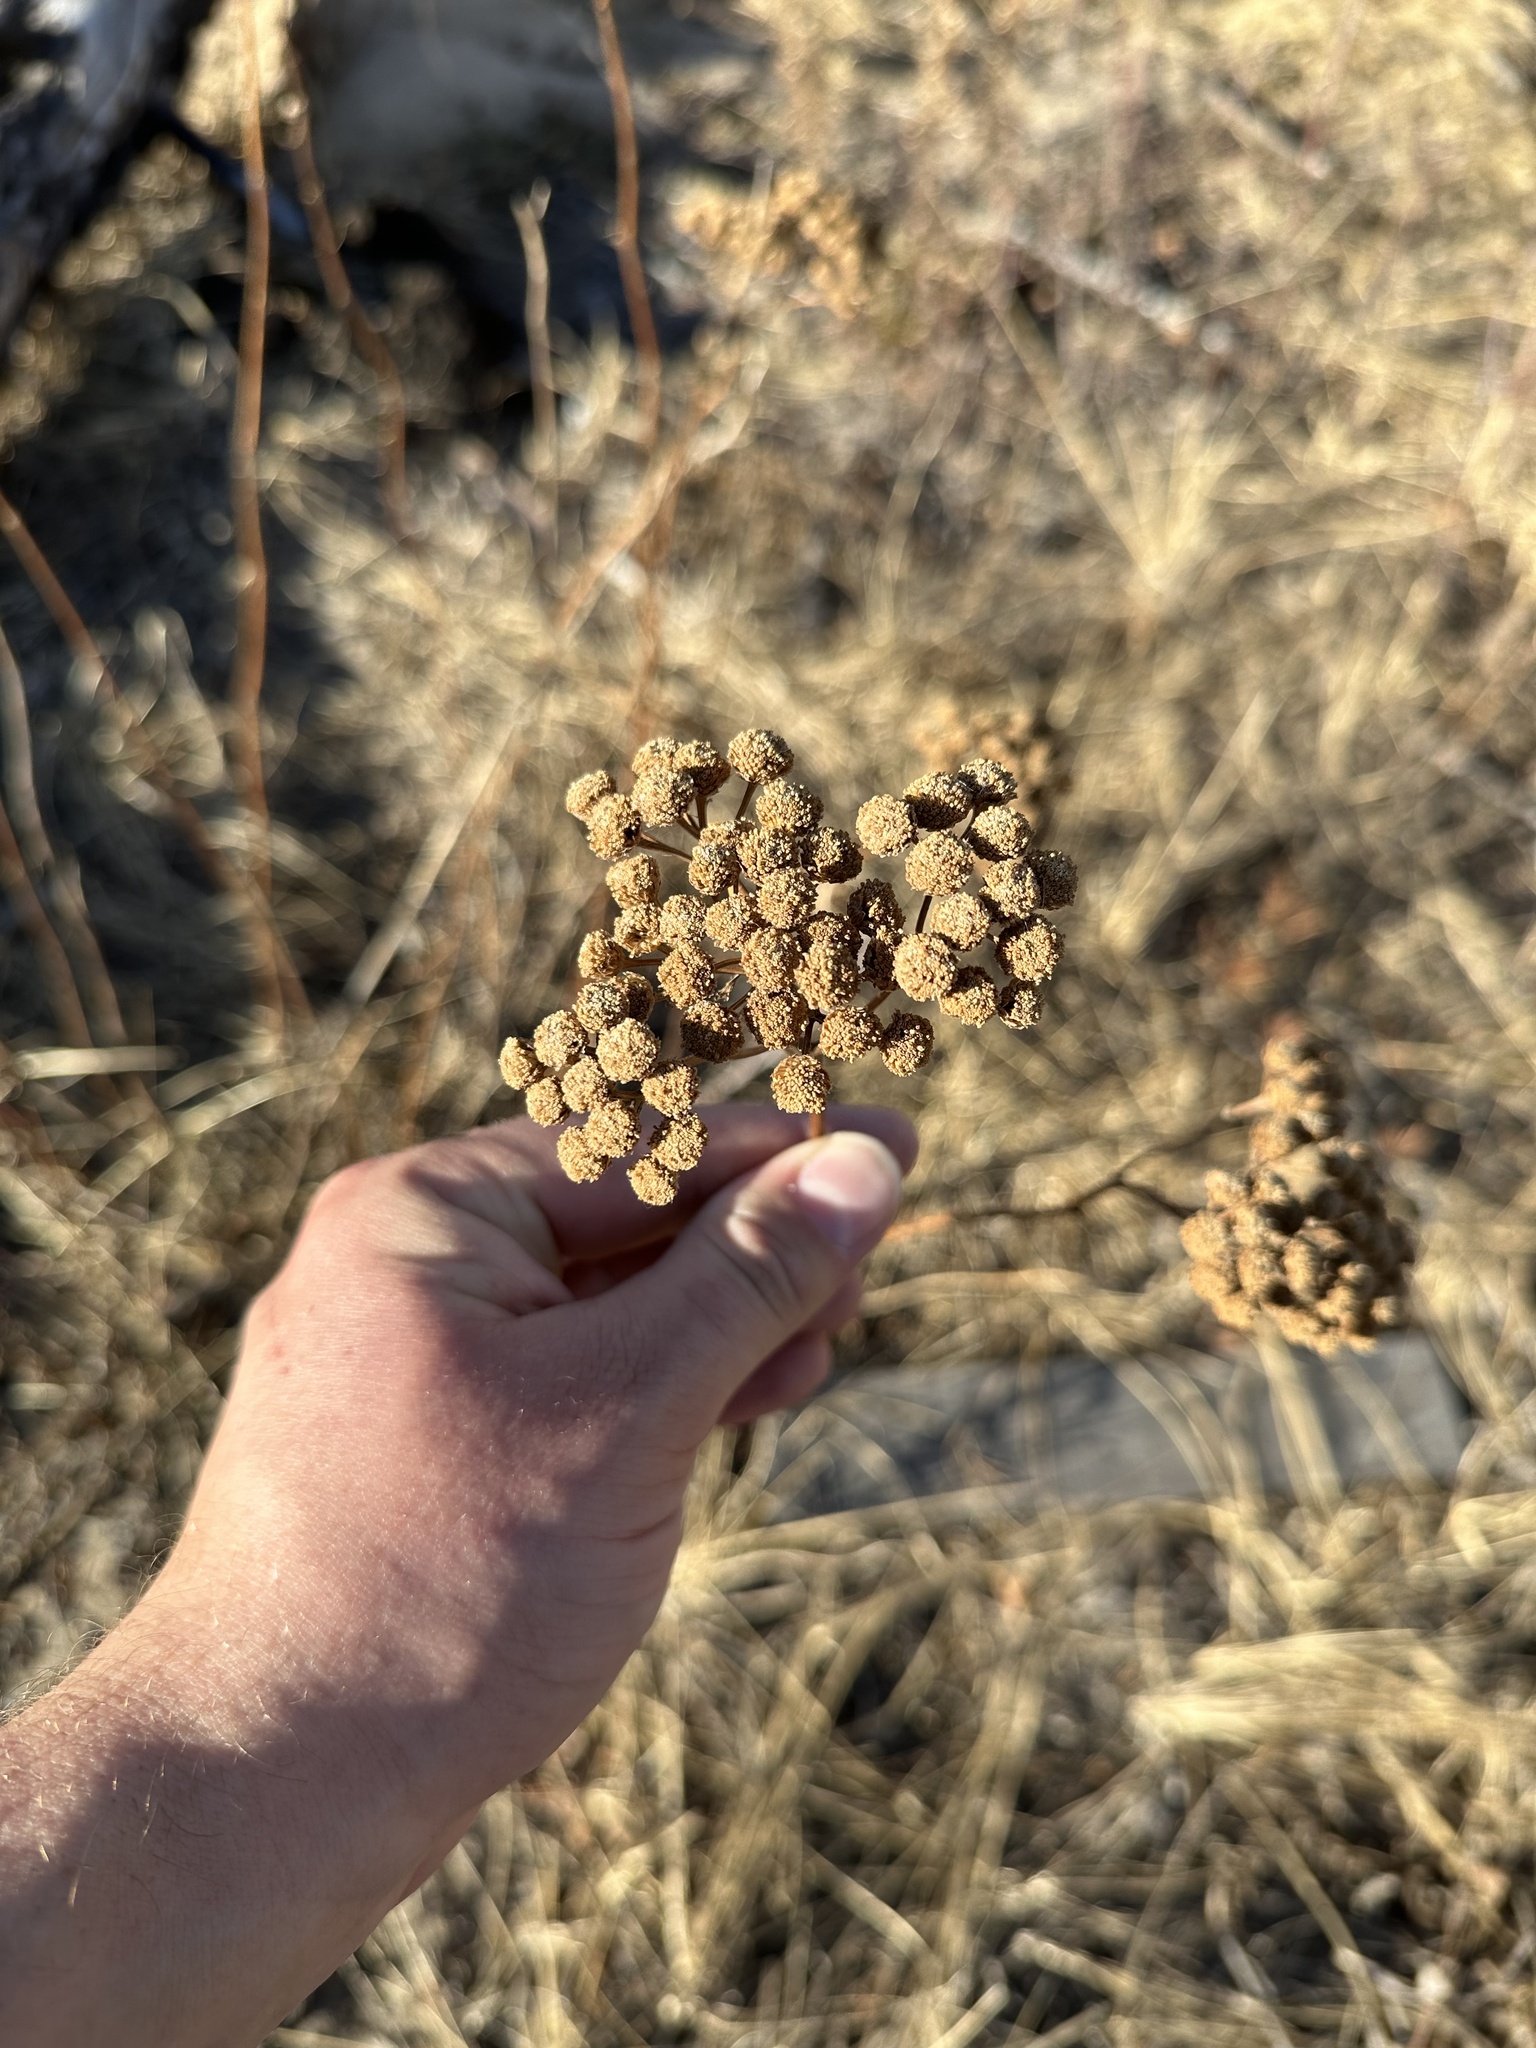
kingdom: Plantae
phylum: Tracheophyta
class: Magnoliopsida
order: Asterales
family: Asteraceae
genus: Tanacetum
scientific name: Tanacetum vulgare
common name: Common tansy
